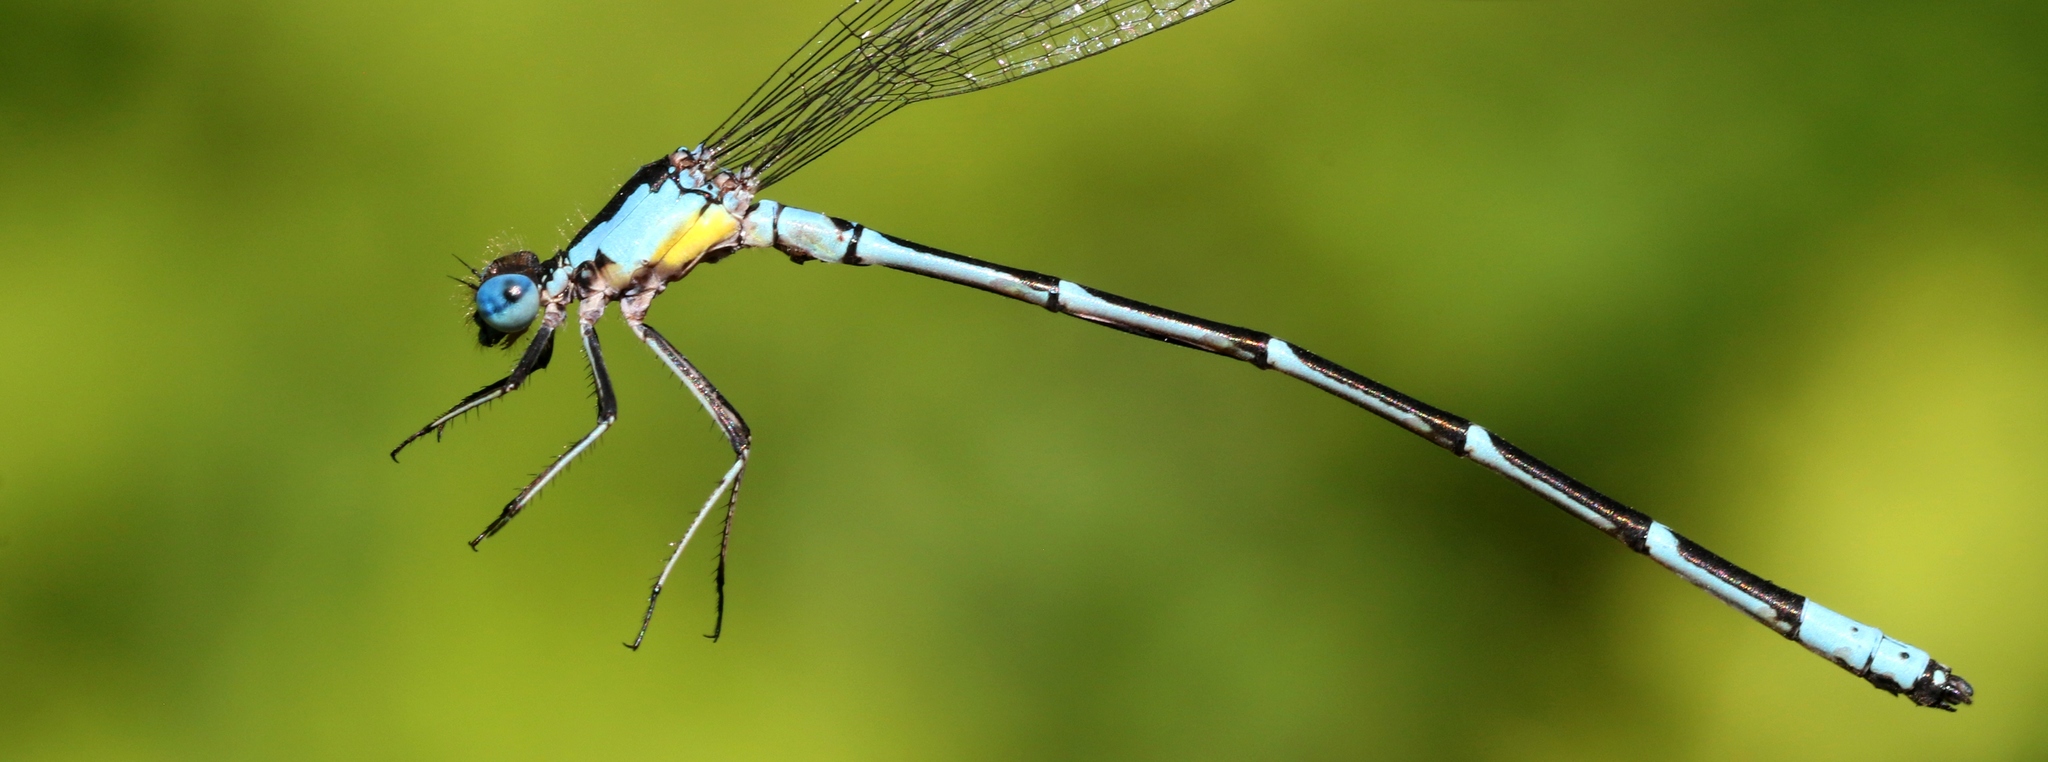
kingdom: Animalia
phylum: Arthropoda
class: Insecta
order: Odonata
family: Coenagrionidae
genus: Chromagrion
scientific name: Chromagrion conditum
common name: Aurora damsel
